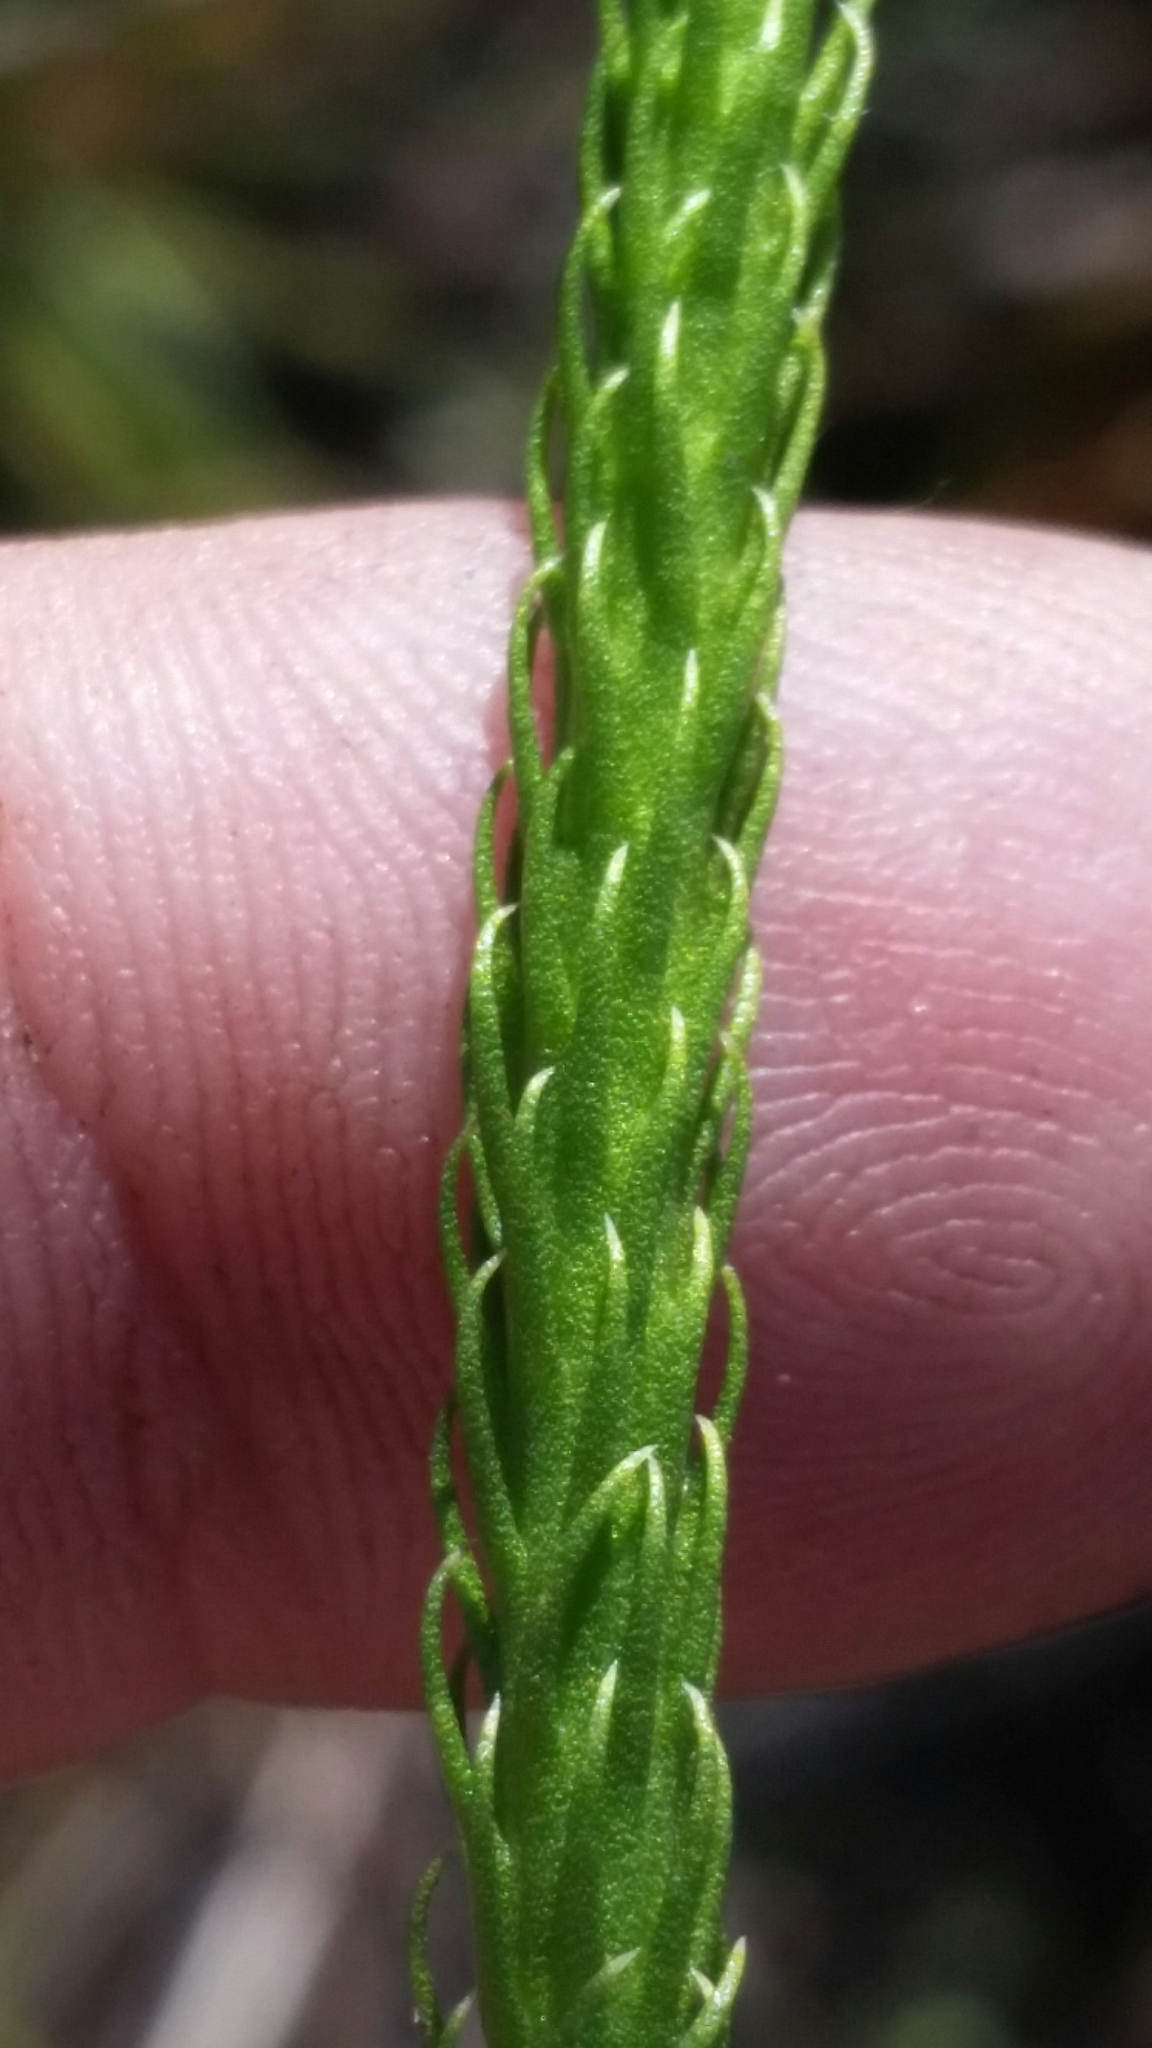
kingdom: Plantae
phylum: Tracheophyta
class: Lycopodiopsida
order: Lycopodiales
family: Lycopodiaceae
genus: Lycopodiella
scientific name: Lycopodiella appressa
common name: Appressed bog clubmoss
